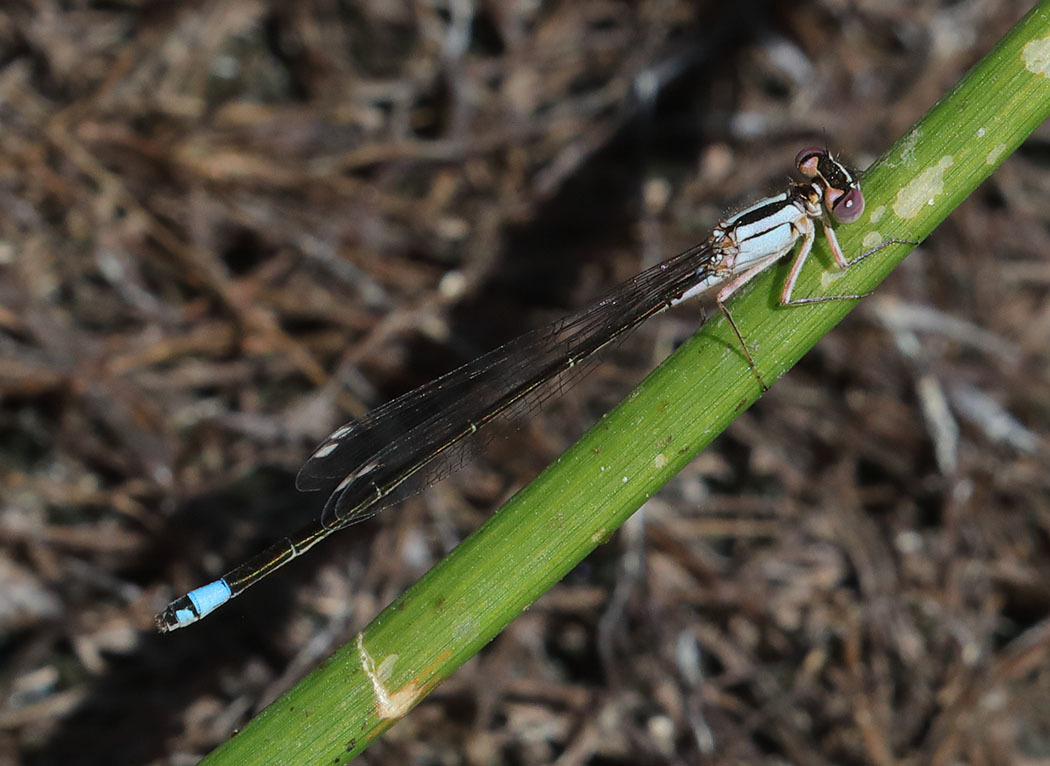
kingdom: Animalia
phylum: Arthropoda
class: Insecta
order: Odonata
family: Coenagrionidae
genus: Ischnura
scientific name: Ischnura cervula
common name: Pacific forktail
